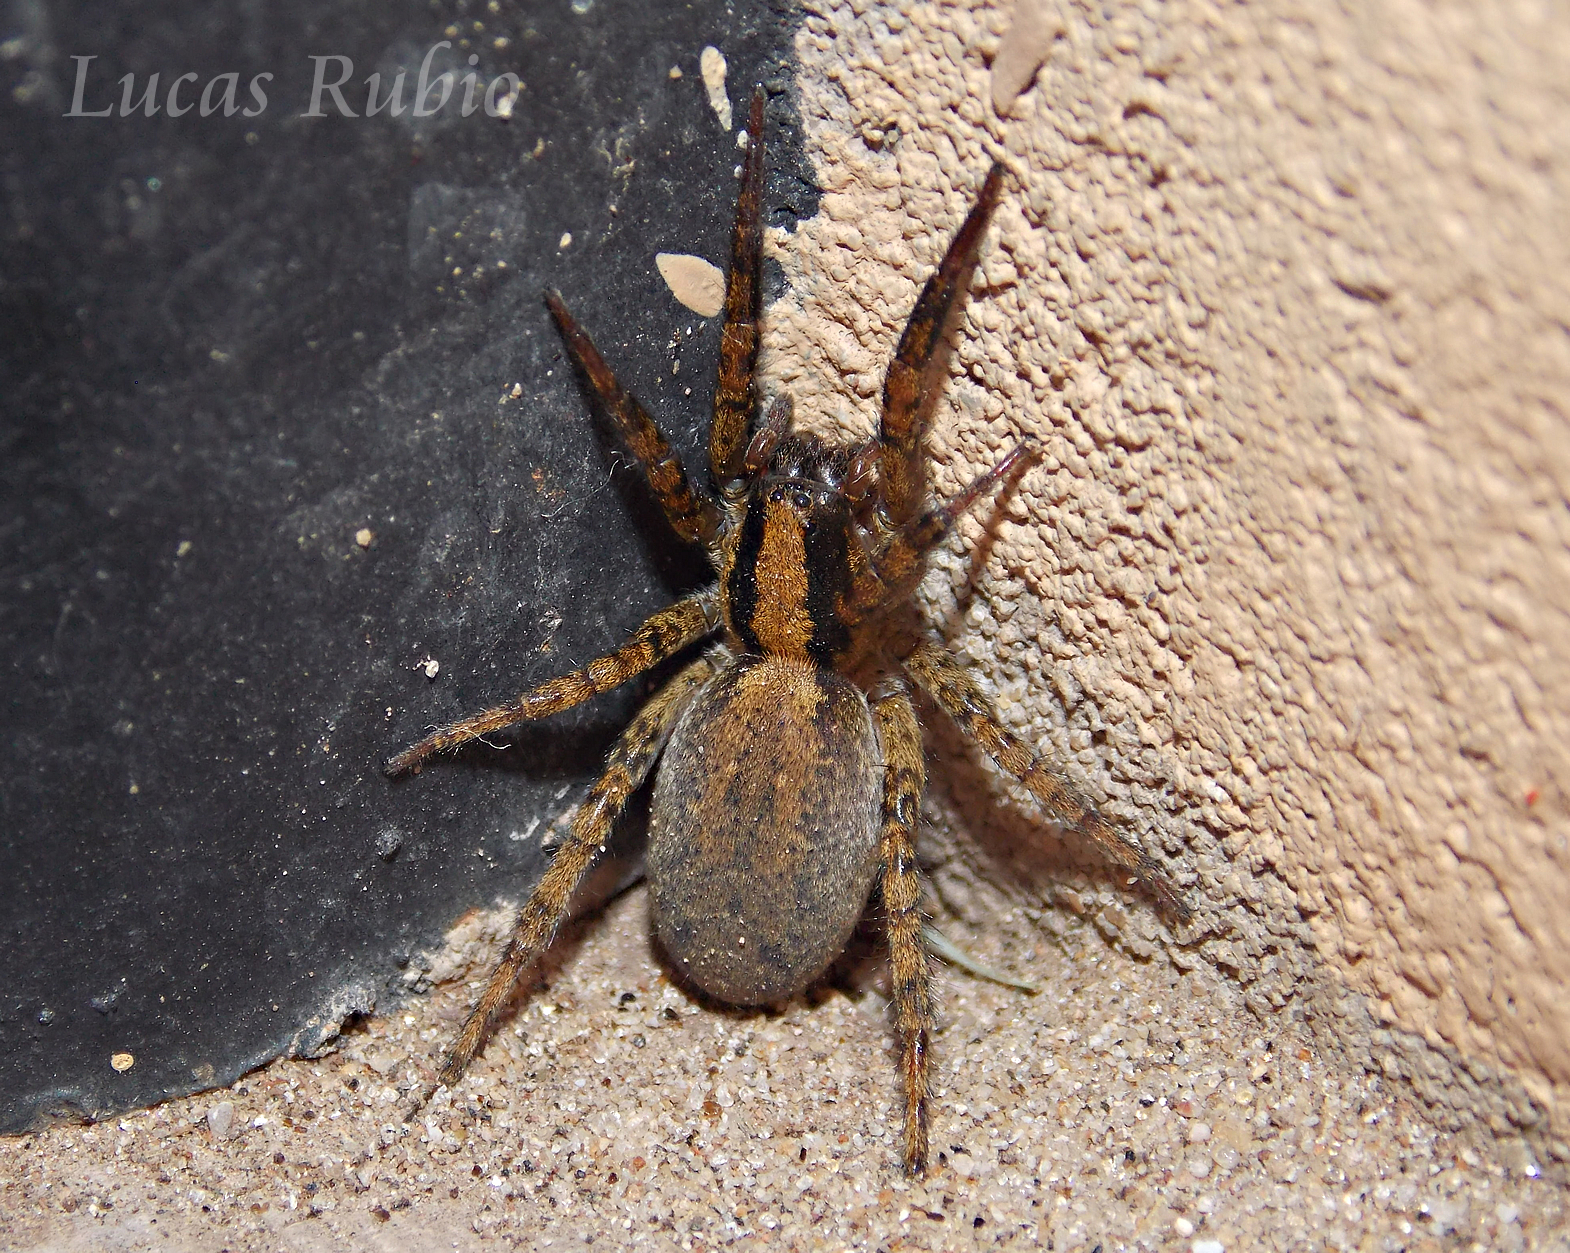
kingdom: Animalia
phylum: Arthropoda
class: Arachnida
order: Araneae
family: Lycosidae
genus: Birabenia
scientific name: Birabenia birabenae
